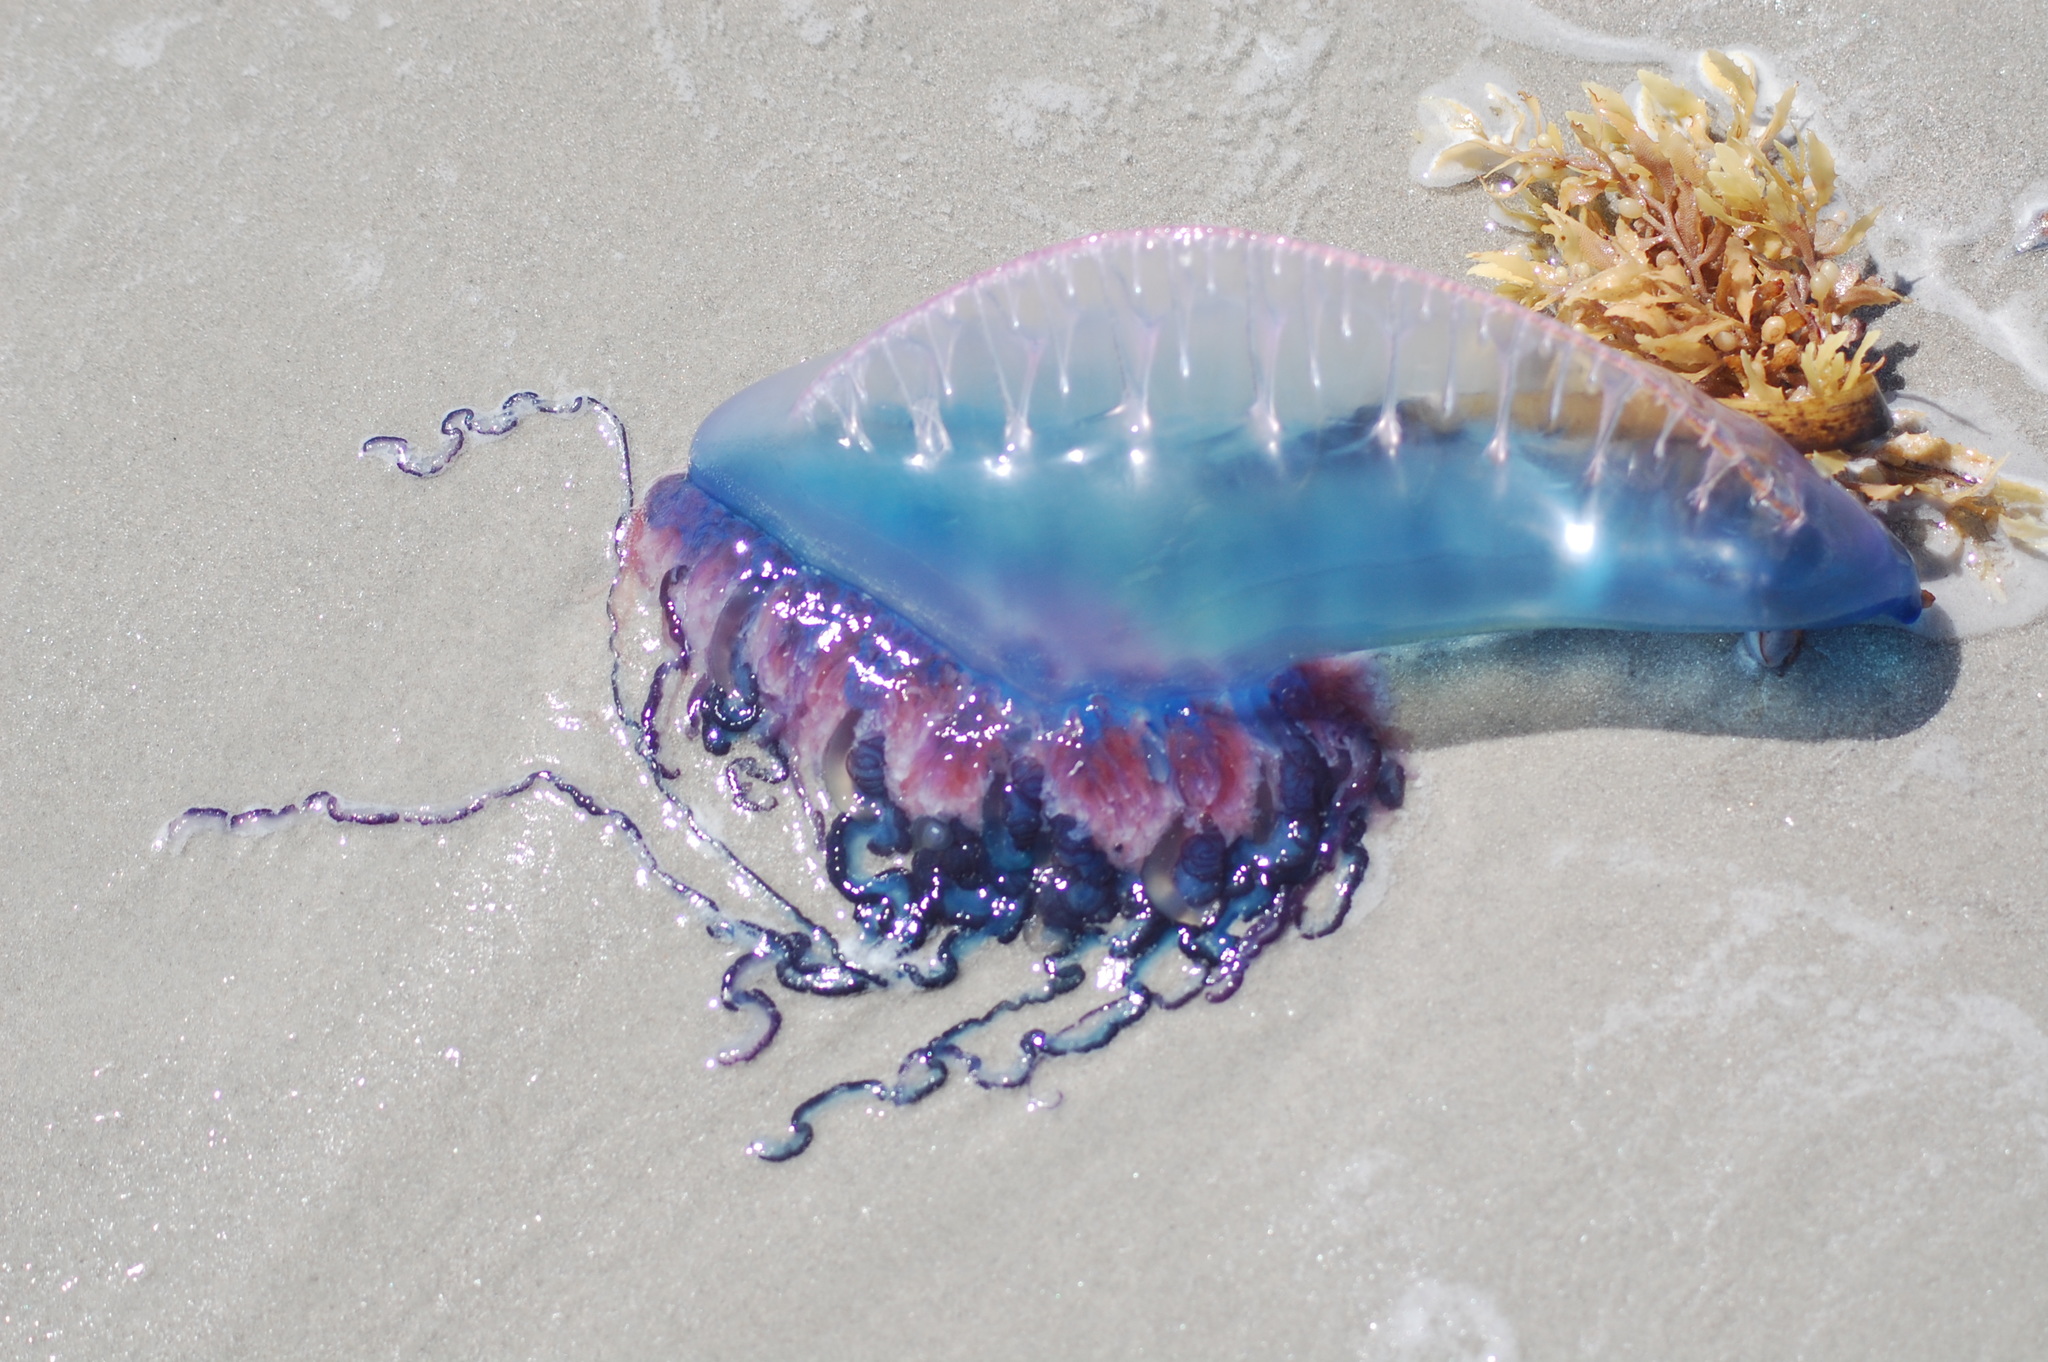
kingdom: Animalia
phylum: Cnidaria
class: Hydrozoa
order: Siphonophorae
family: Physaliidae
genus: Physalia
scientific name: Physalia physalis
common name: Portuguese man-of-war
